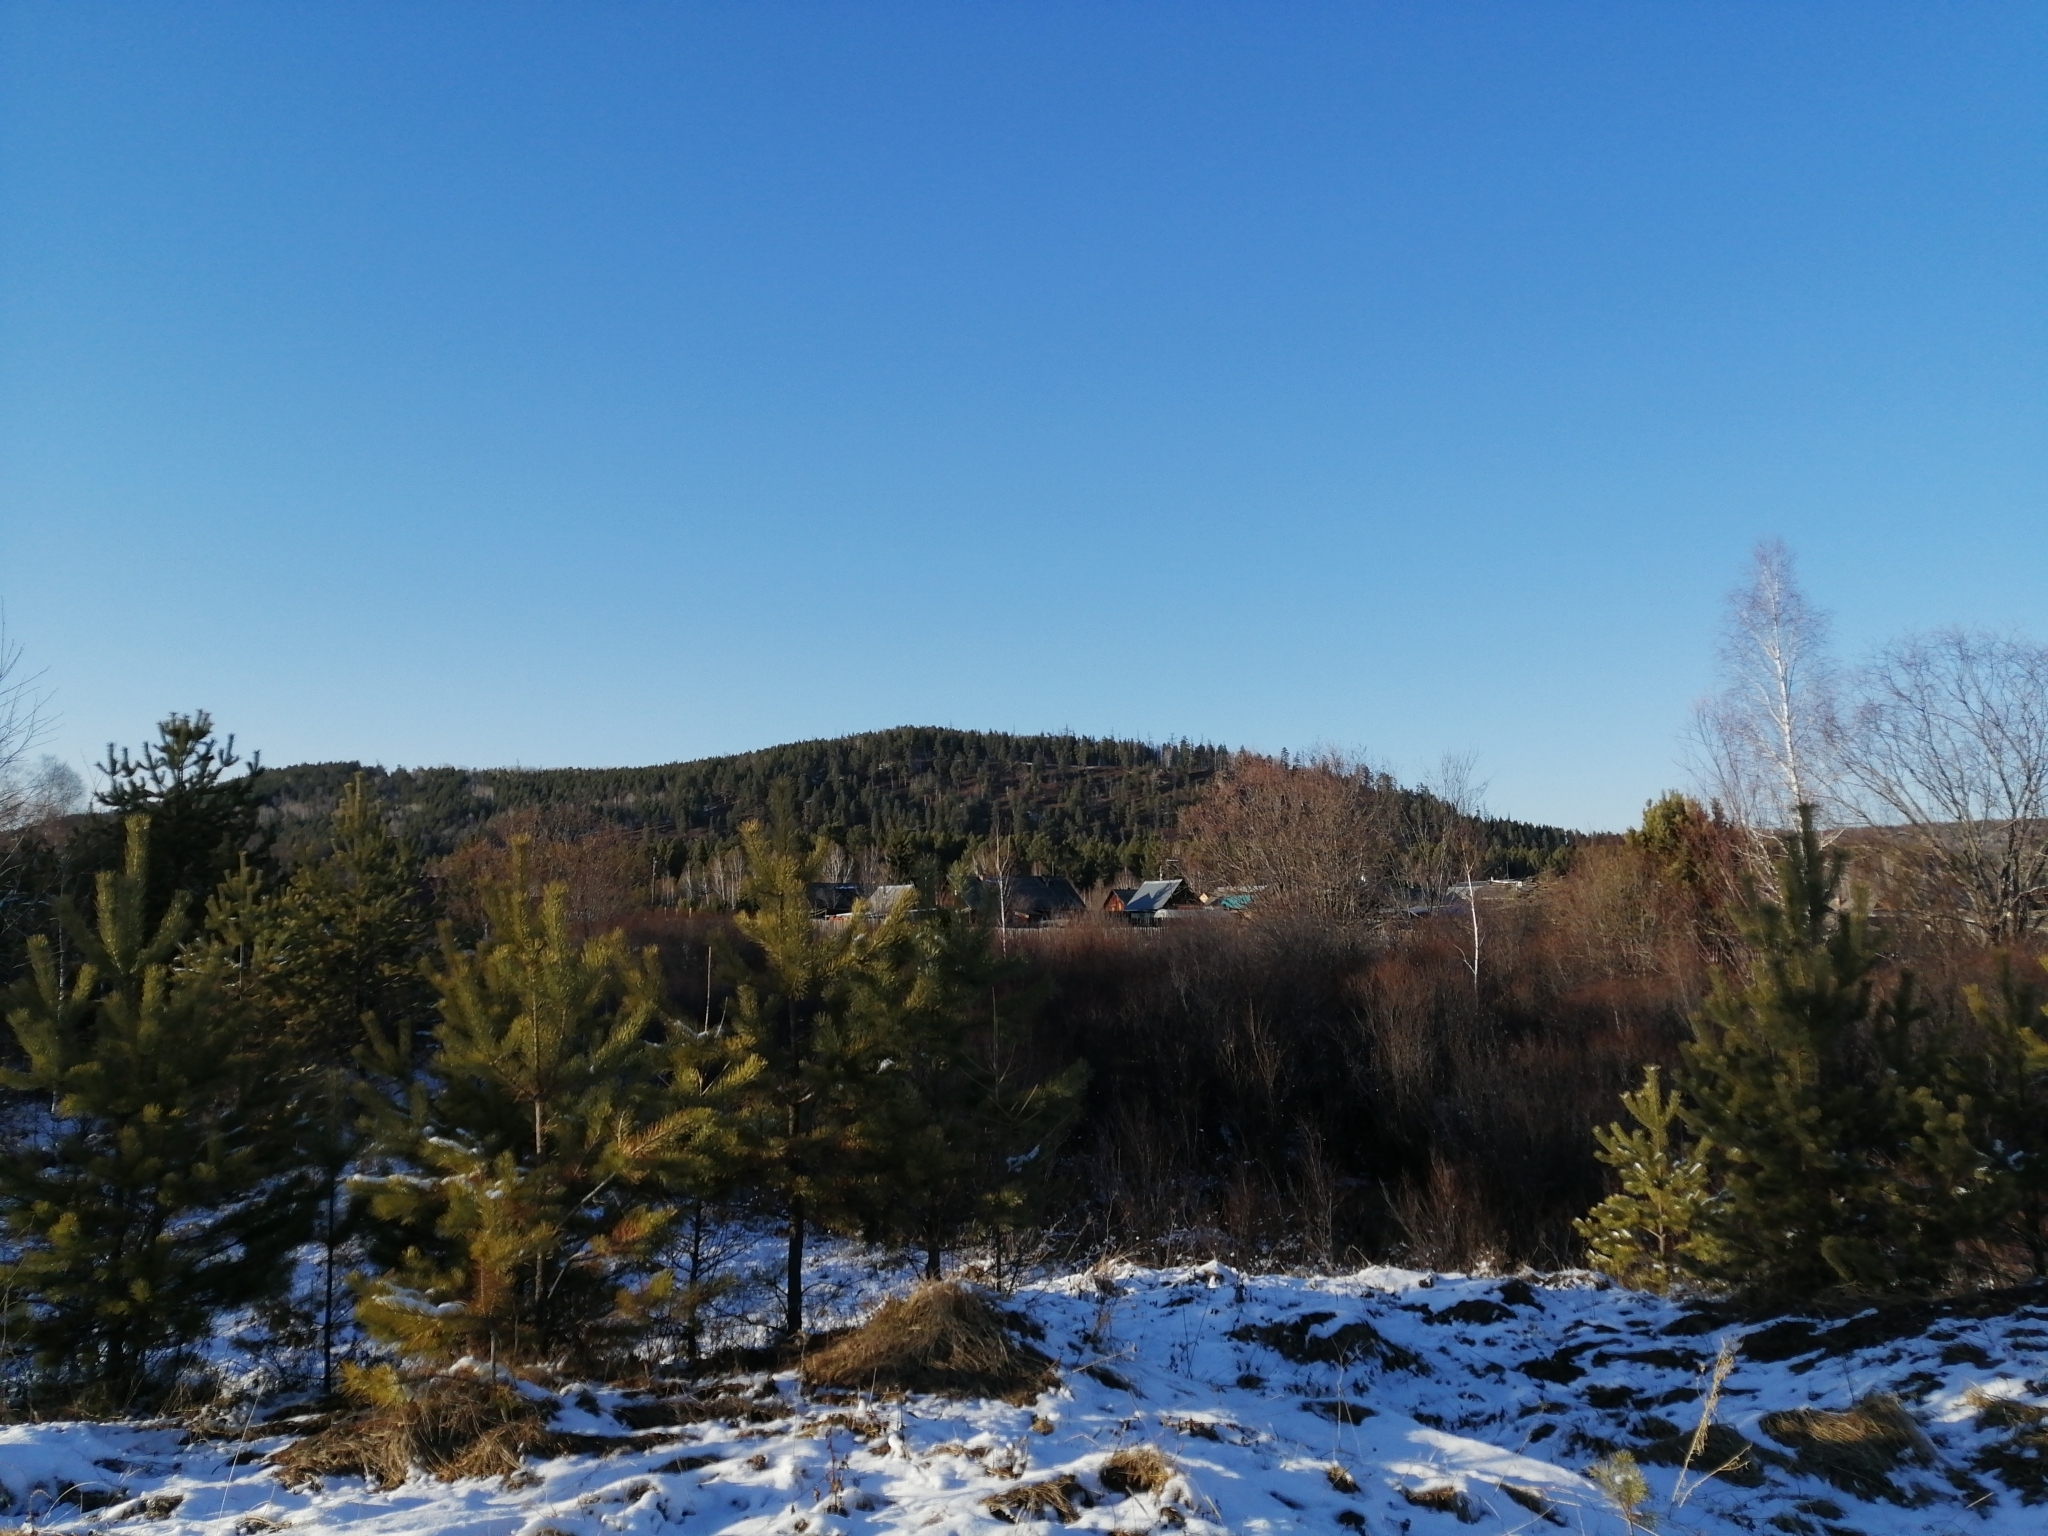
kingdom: Plantae
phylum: Tracheophyta
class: Pinopsida
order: Pinales
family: Pinaceae
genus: Pinus
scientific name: Pinus sylvestris
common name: Scots pine
